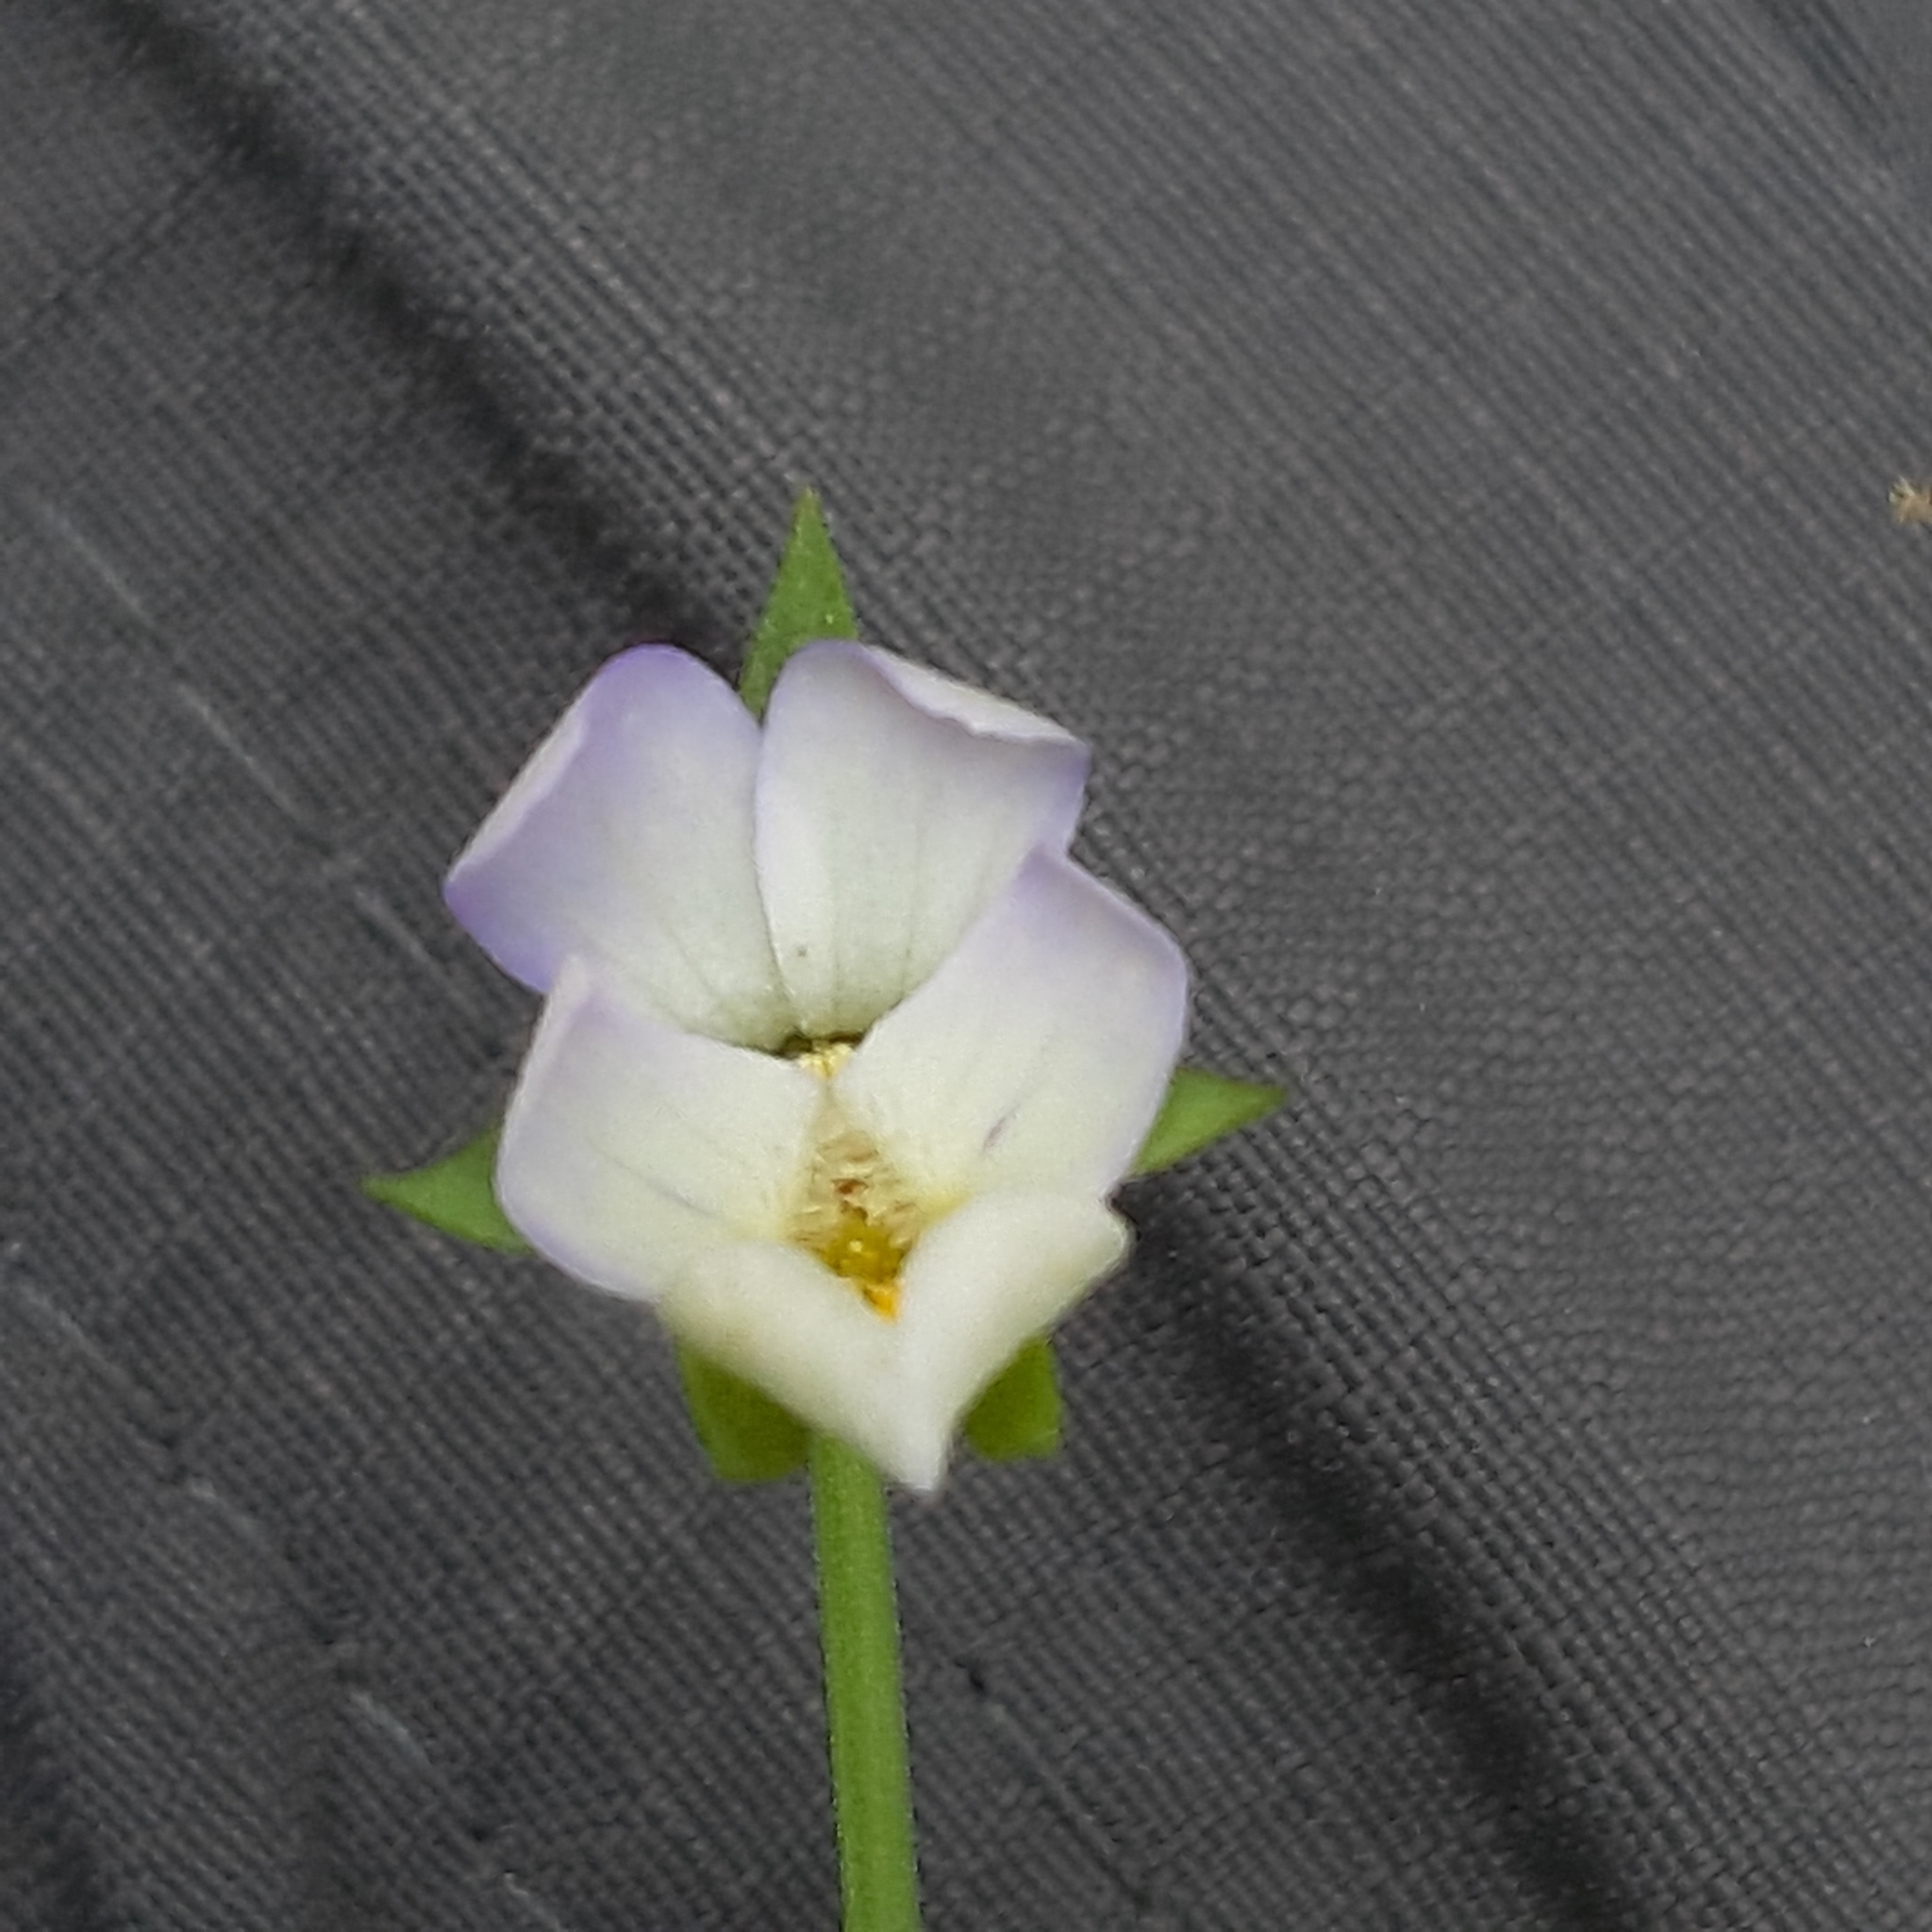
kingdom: Plantae
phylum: Tracheophyta
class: Magnoliopsida
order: Malpighiales
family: Violaceae
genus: Viola
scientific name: Viola arvensis
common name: Field pansy
